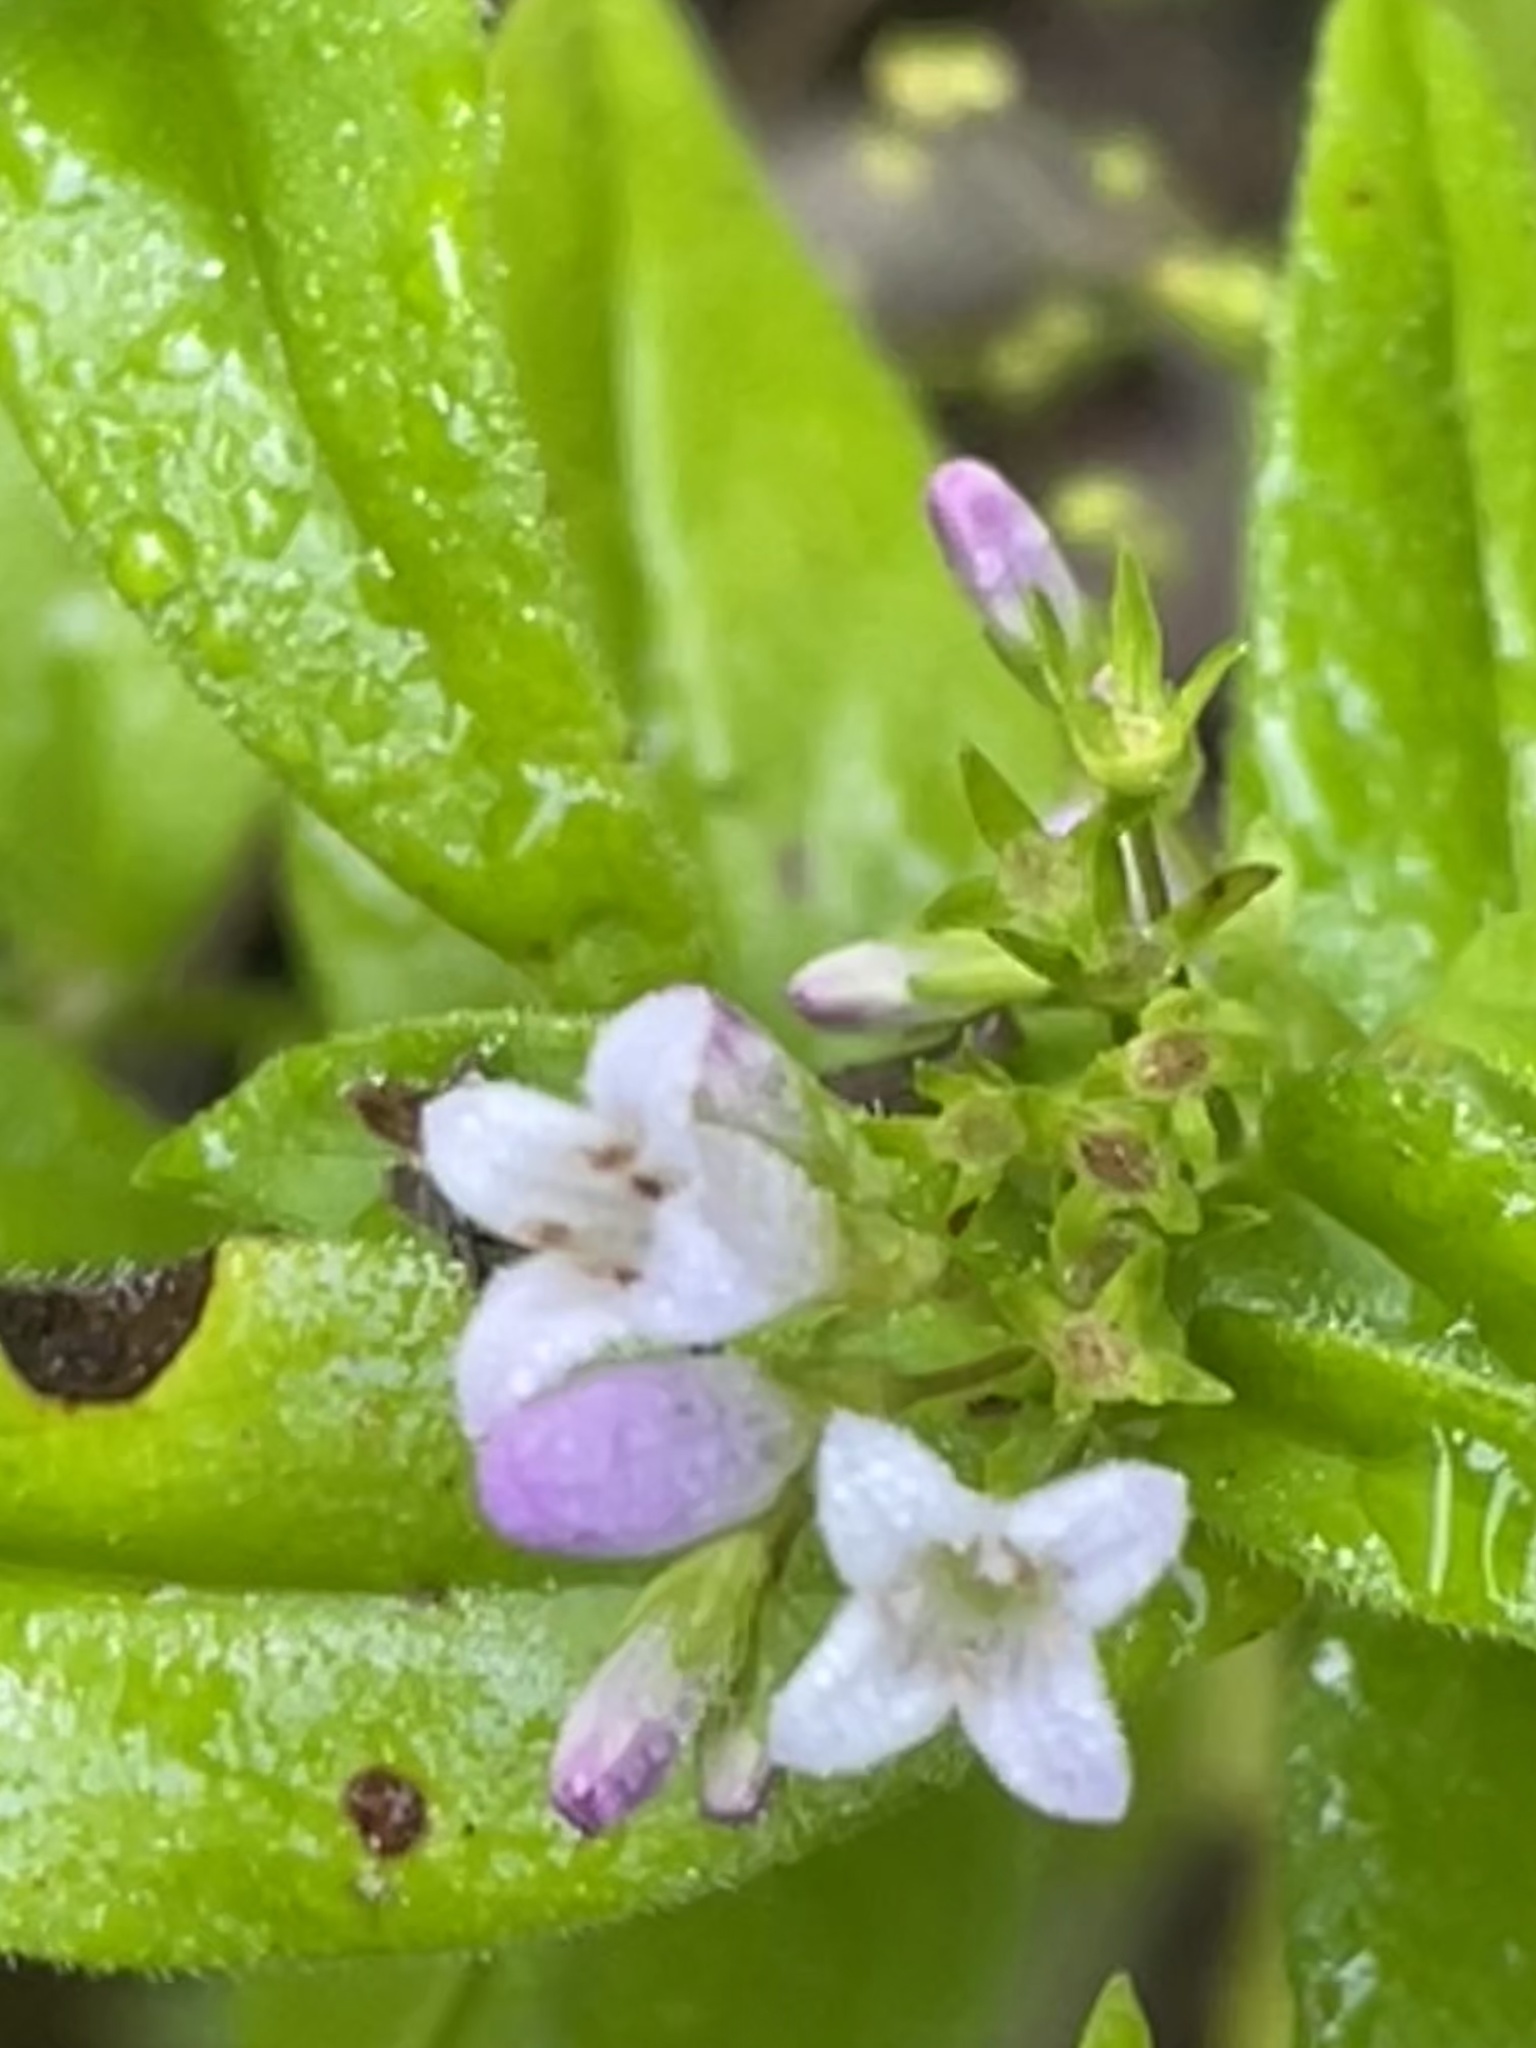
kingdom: Plantae
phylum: Tracheophyta
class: Magnoliopsida
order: Gentianales
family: Rubiaceae
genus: Houstonia
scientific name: Houstonia purpurea
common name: Summer bluet
